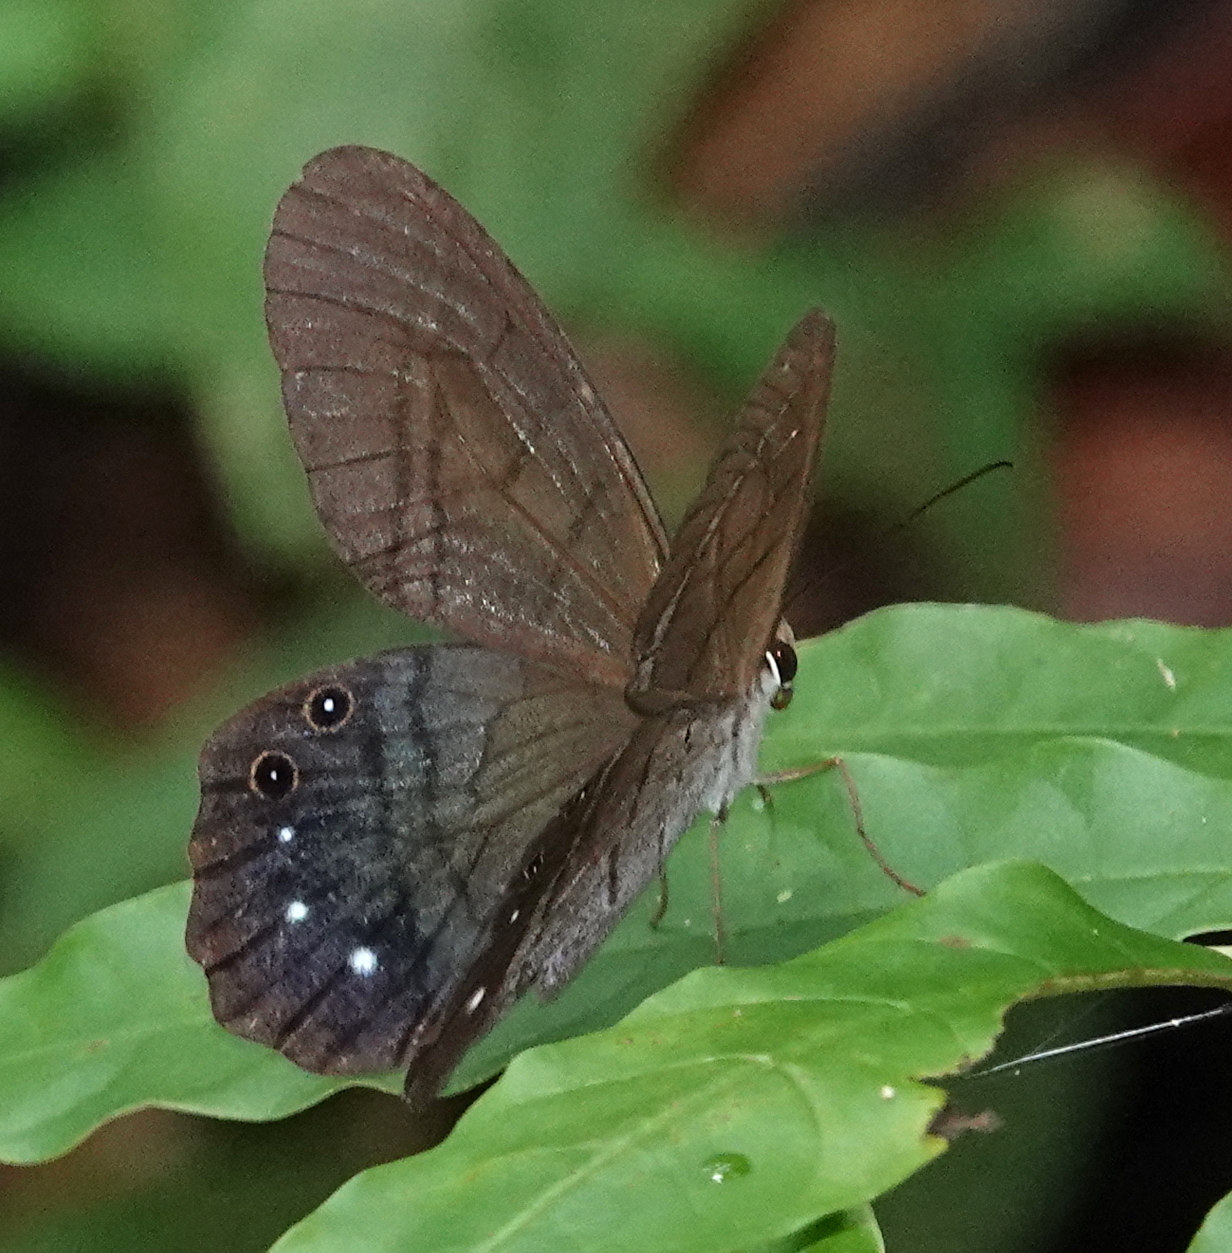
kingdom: Animalia
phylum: Arthropoda
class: Insecta
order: Lepidoptera
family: Nymphalidae
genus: Pierella
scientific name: Pierella astyoche
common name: Astyoche satyr
